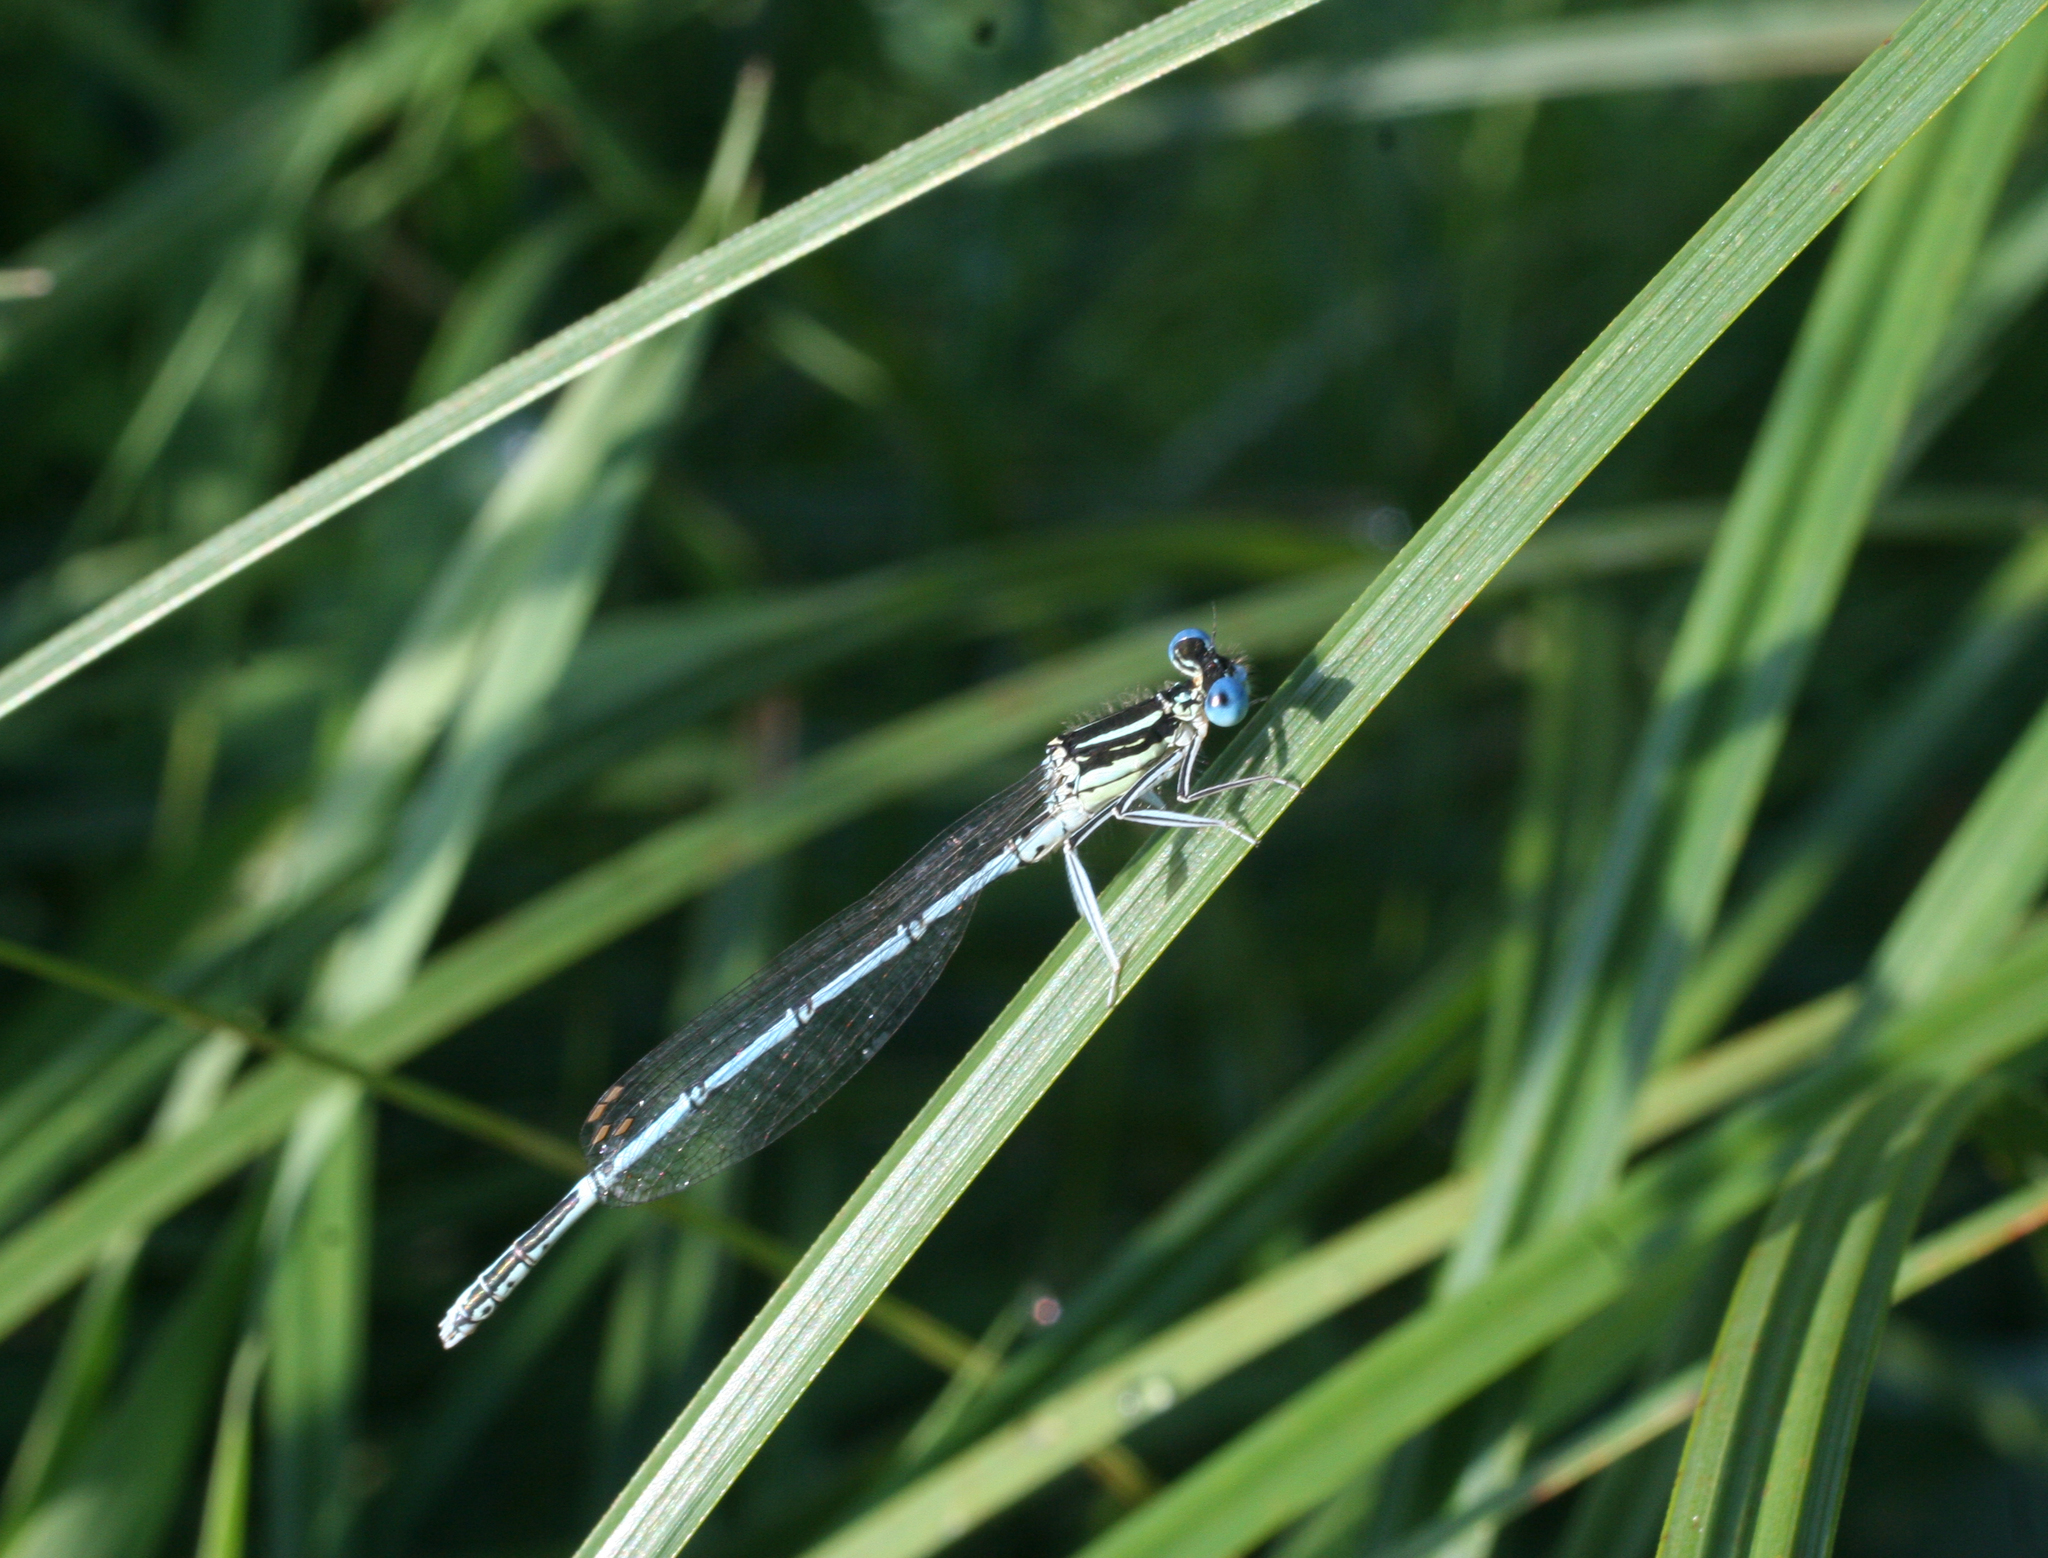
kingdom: Animalia
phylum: Arthropoda
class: Insecta
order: Odonata
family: Platycnemididae
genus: Platycnemis
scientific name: Platycnemis pennipes
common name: White-legged damselfly
